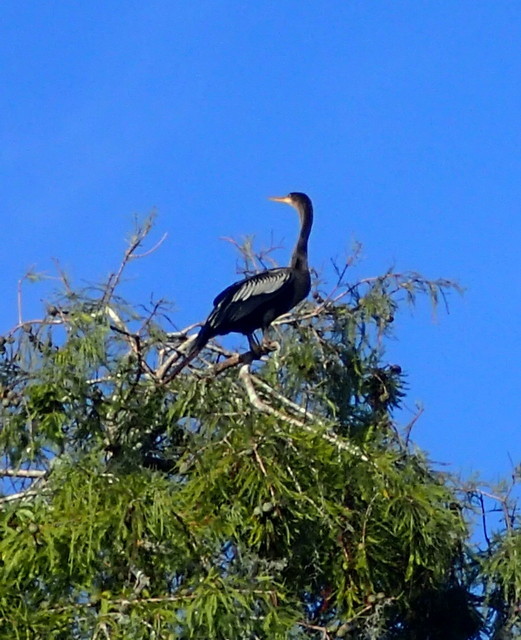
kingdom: Animalia
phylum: Chordata
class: Aves
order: Suliformes
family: Anhingidae
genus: Anhinga
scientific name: Anhinga anhinga
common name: Anhinga
